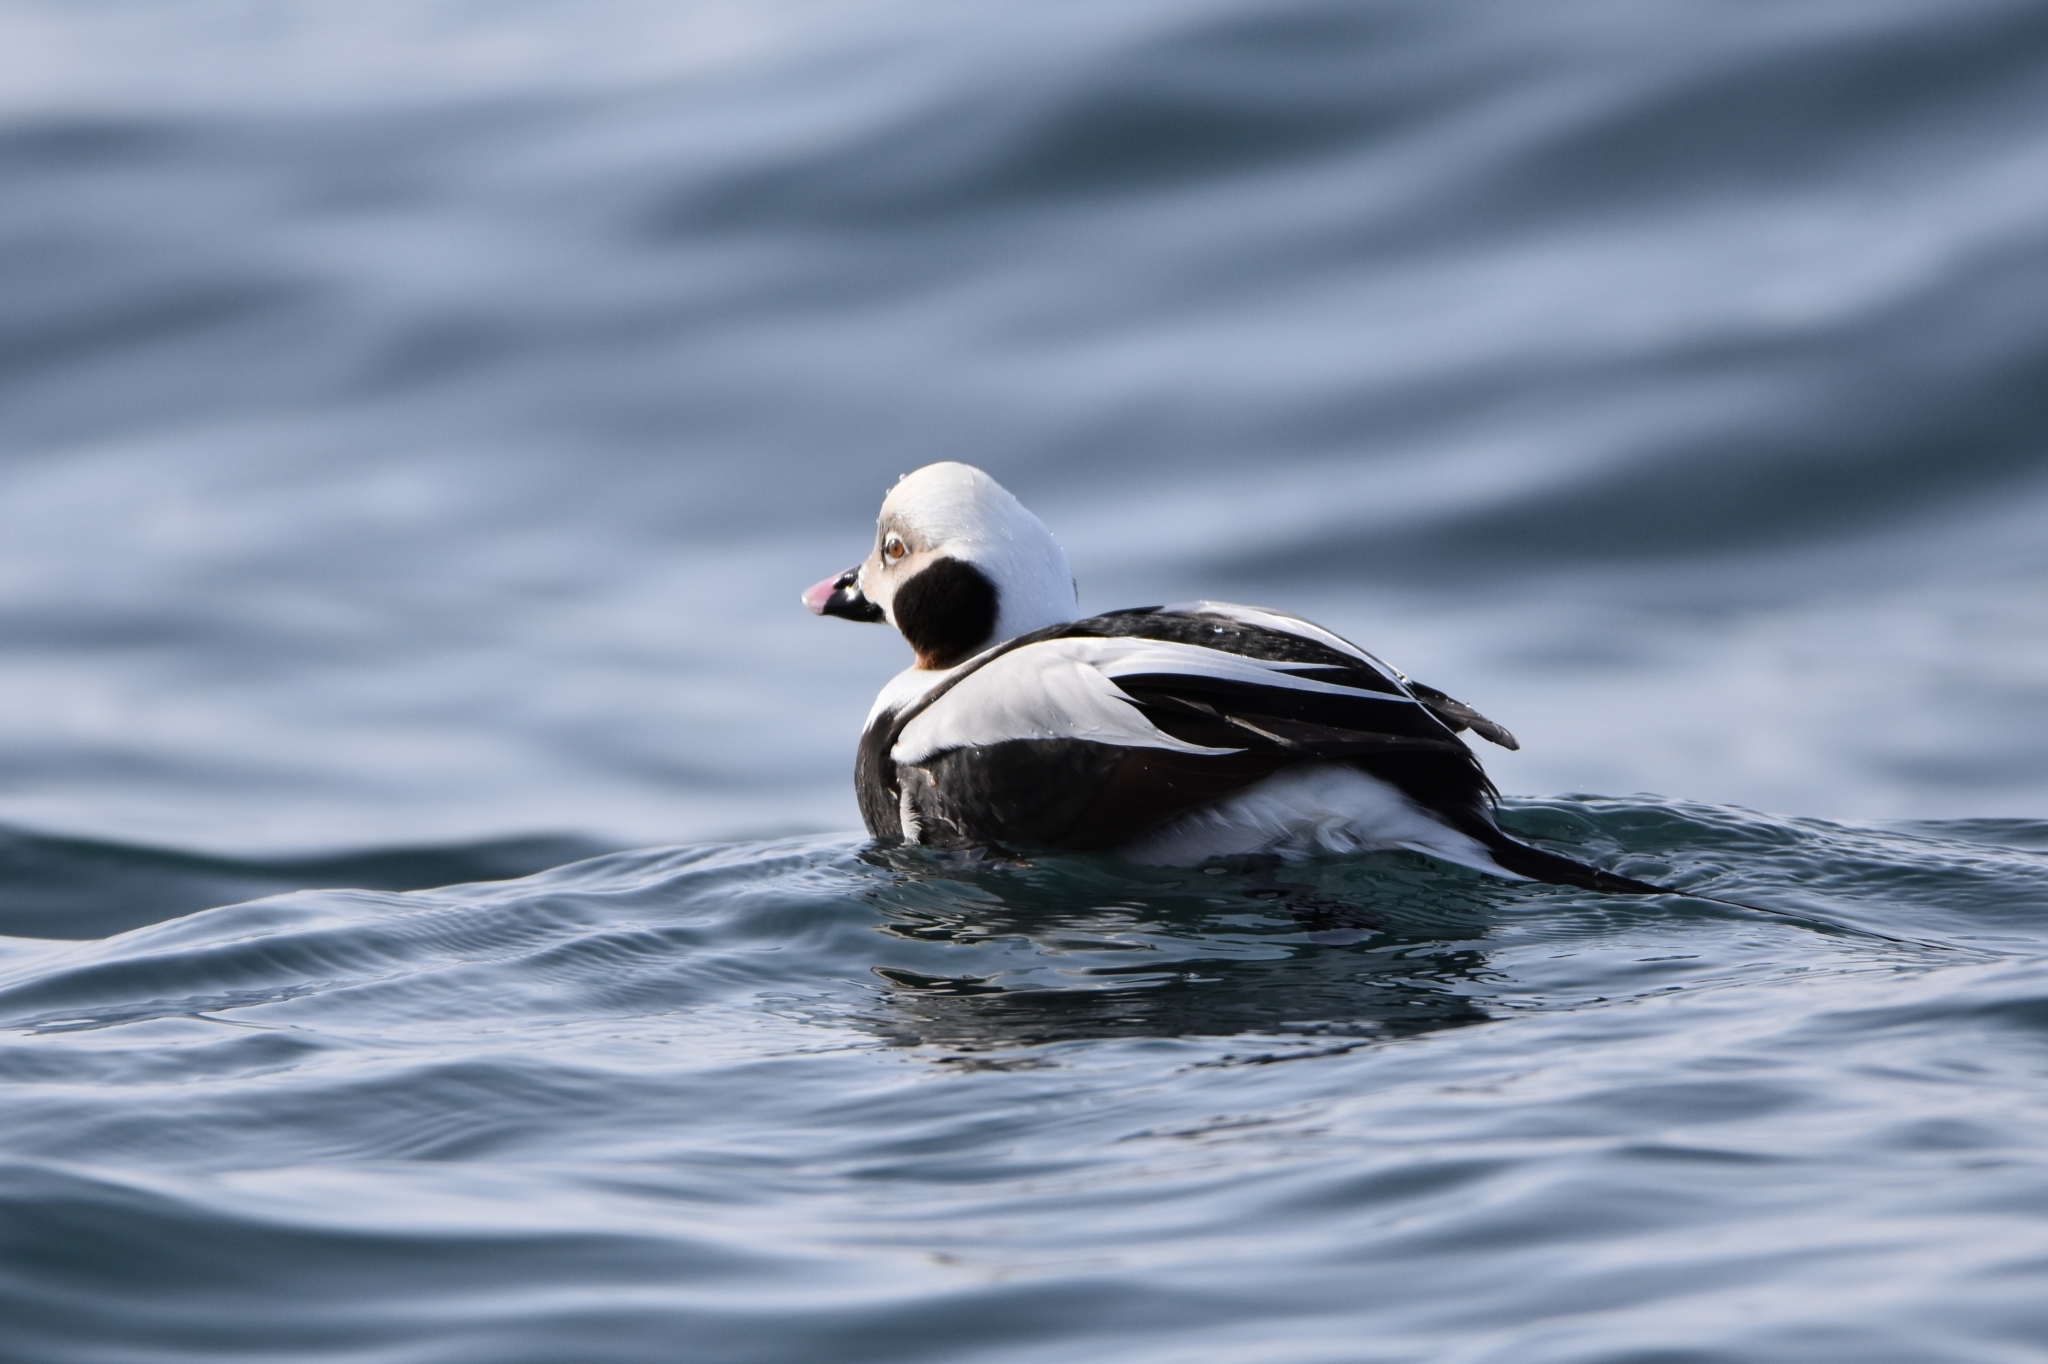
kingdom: Animalia
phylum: Chordata
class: Aves
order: Anseriformes
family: Anatidae
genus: Clangula
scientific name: Clangula hyemalis
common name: Long-tailed duck
